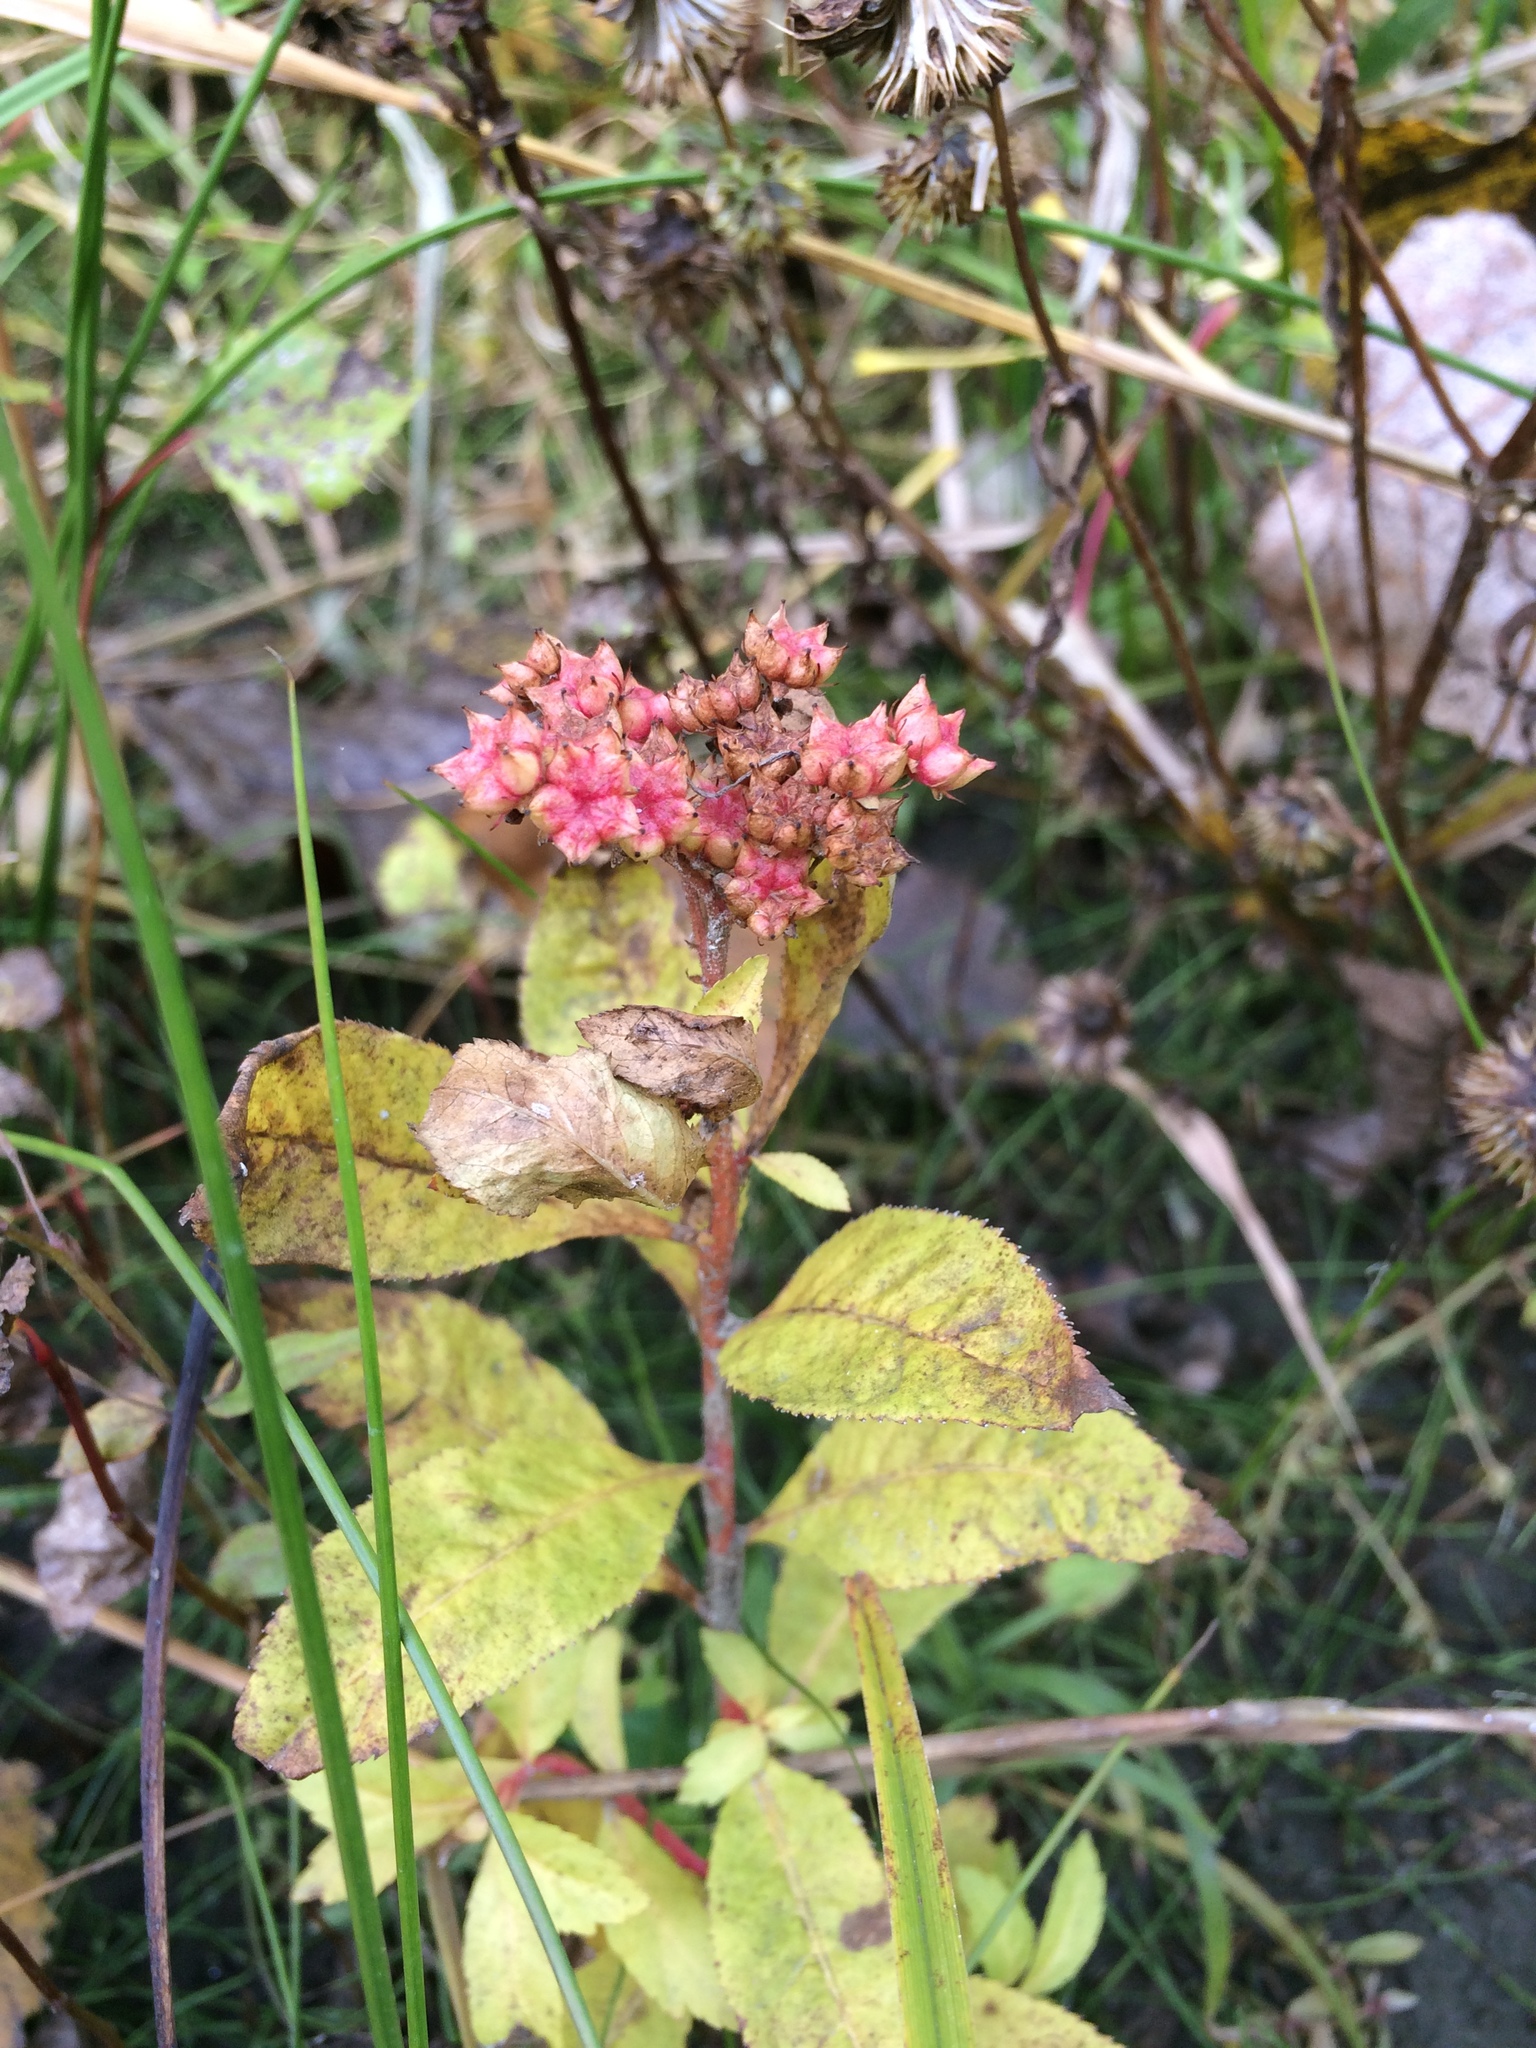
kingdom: Plantae
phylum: Tracheophyta
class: Magnoliopsida
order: Saxifragales
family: Penthoraceae
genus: Penthorum
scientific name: Penthorum sedoides
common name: Ditch stonecrop
